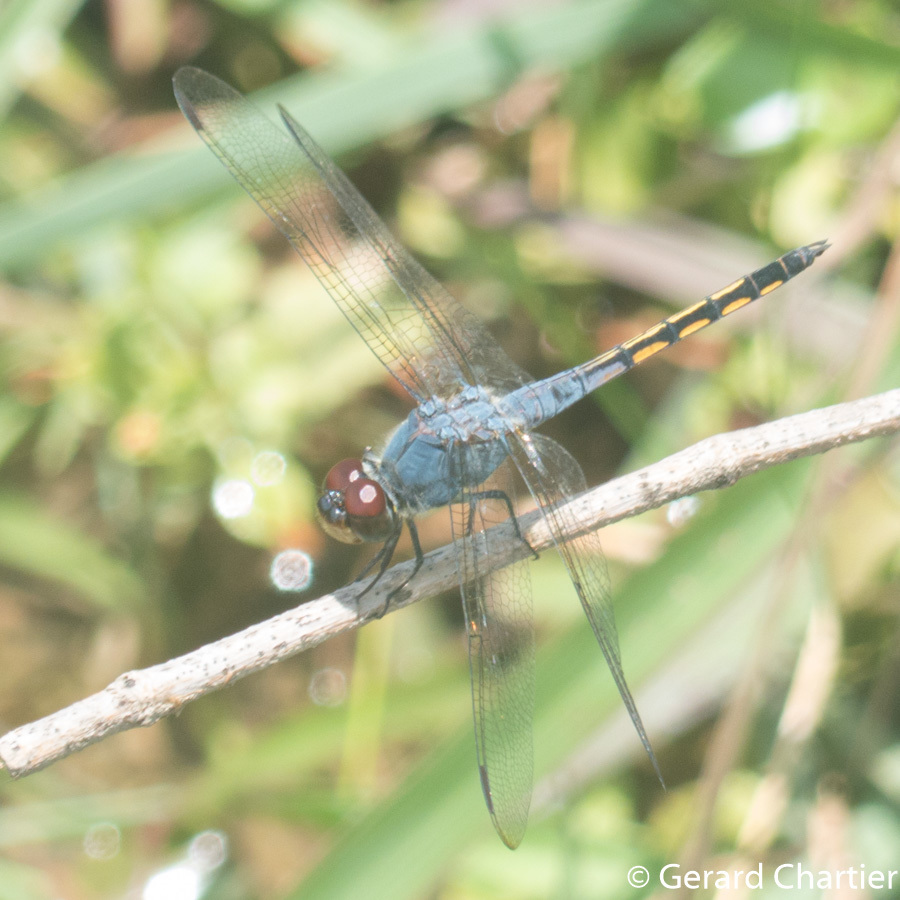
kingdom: Animalia
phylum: Arthropoda
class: Insecta
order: Odonata
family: Libellulidae
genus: Potamarcha
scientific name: Potamarcha congener
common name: Blue chaser
